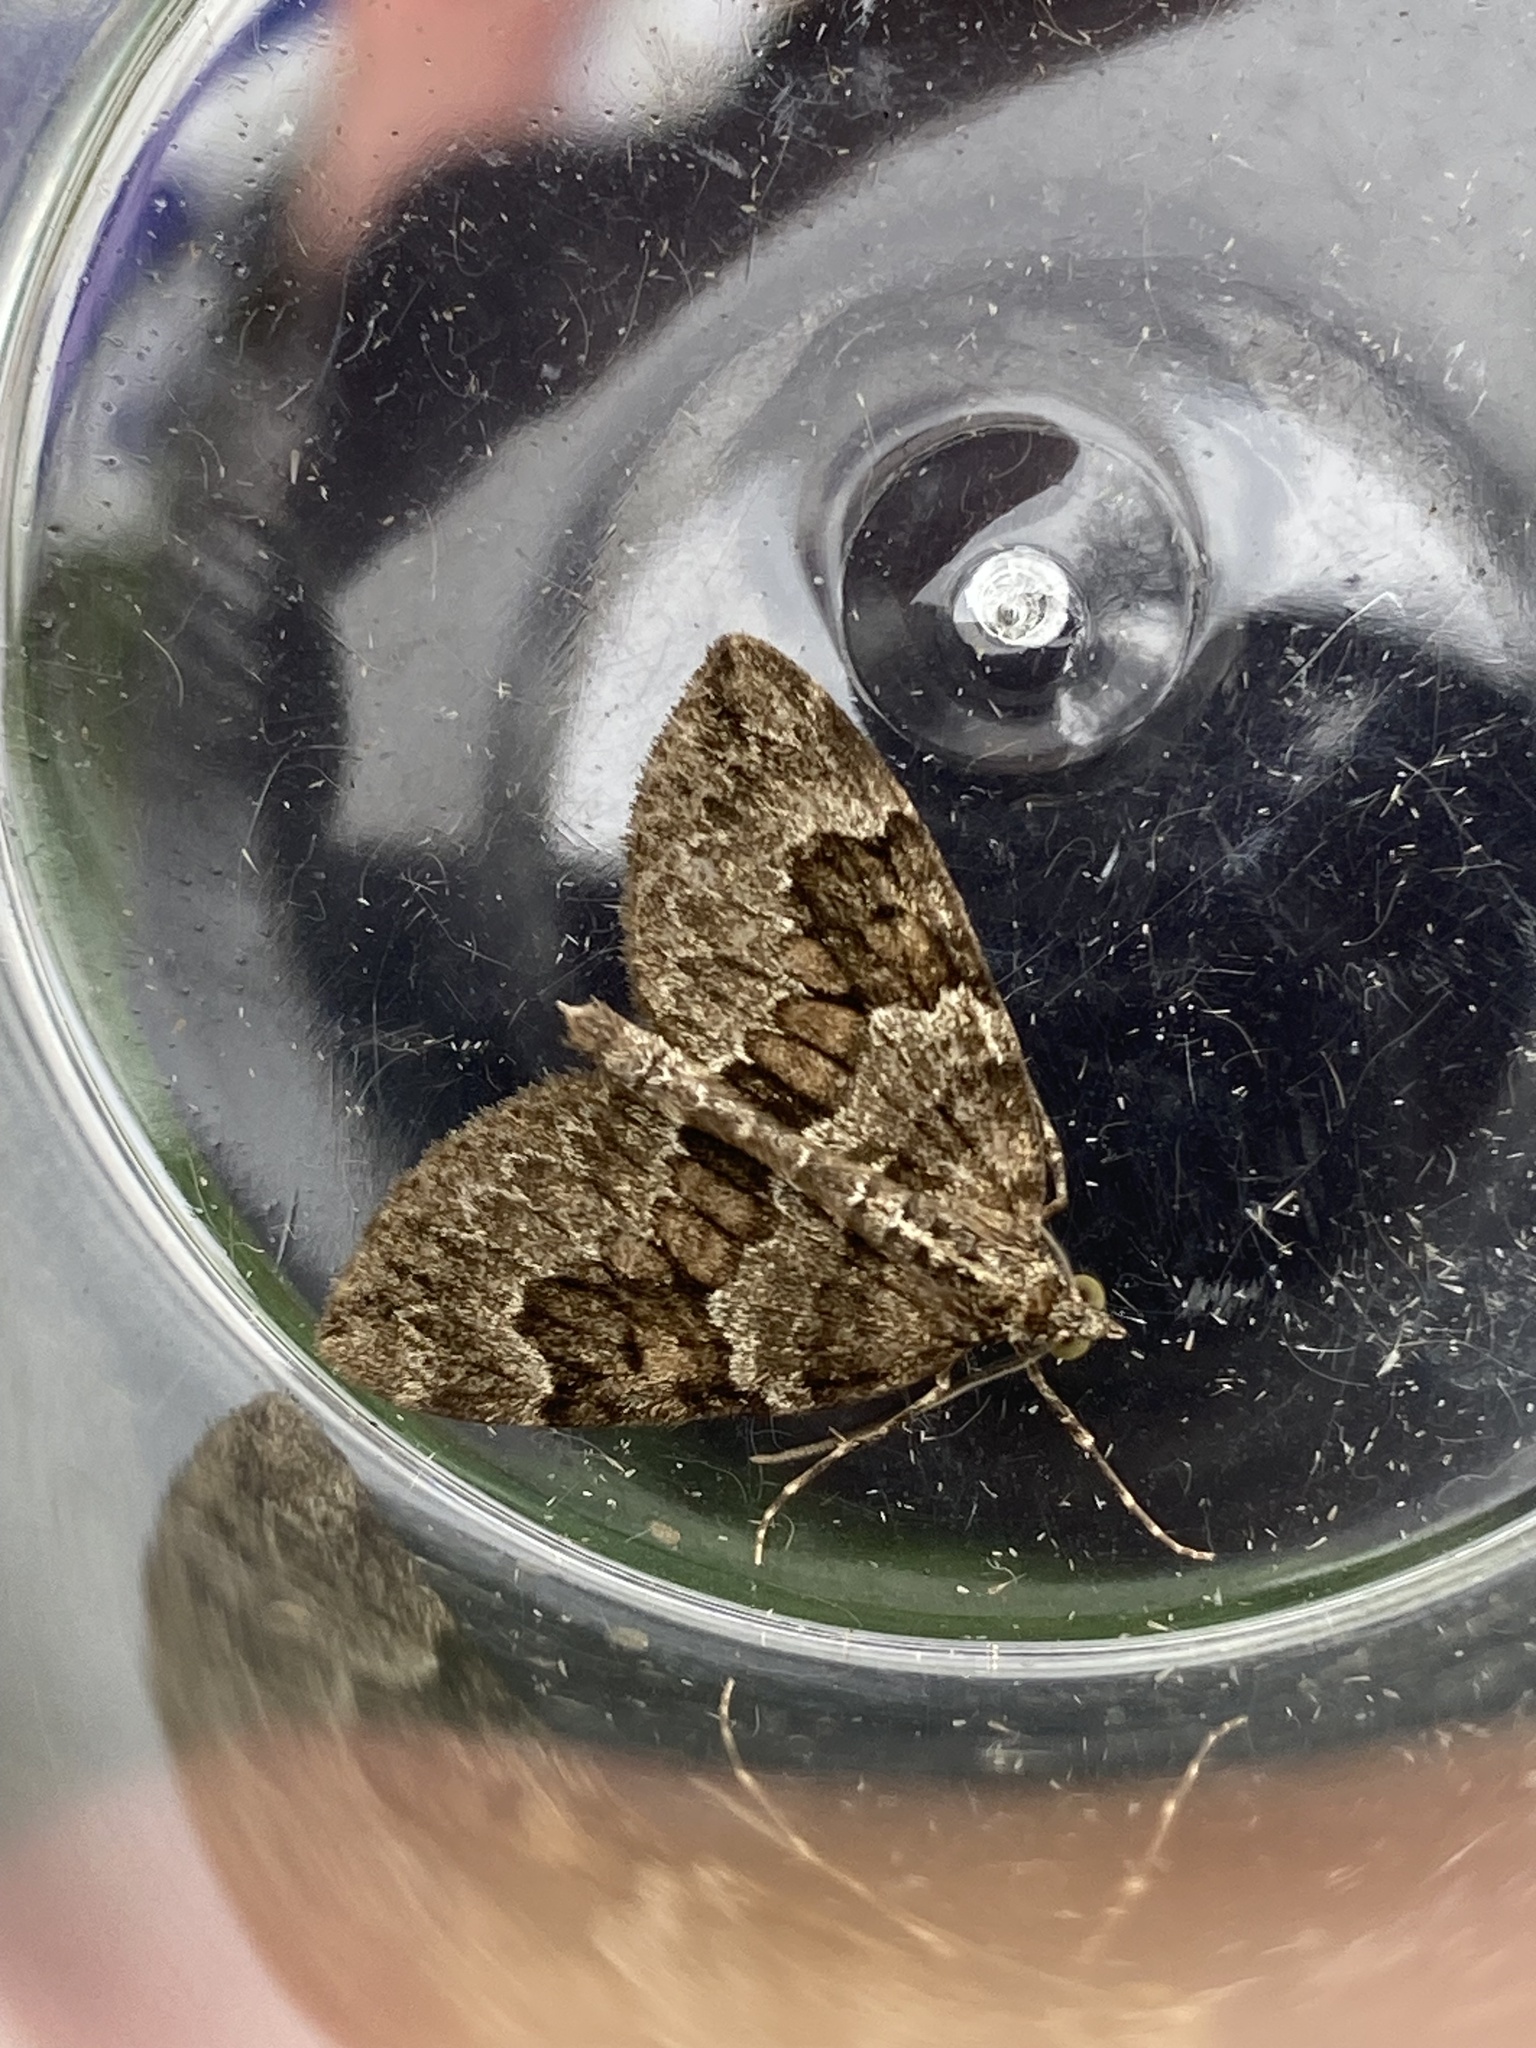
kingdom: Animalia
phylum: Arthropoda
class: Insecta
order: Lepidoptera
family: Geometridae
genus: Thera
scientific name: Thera britannica
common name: Spruce carpet
